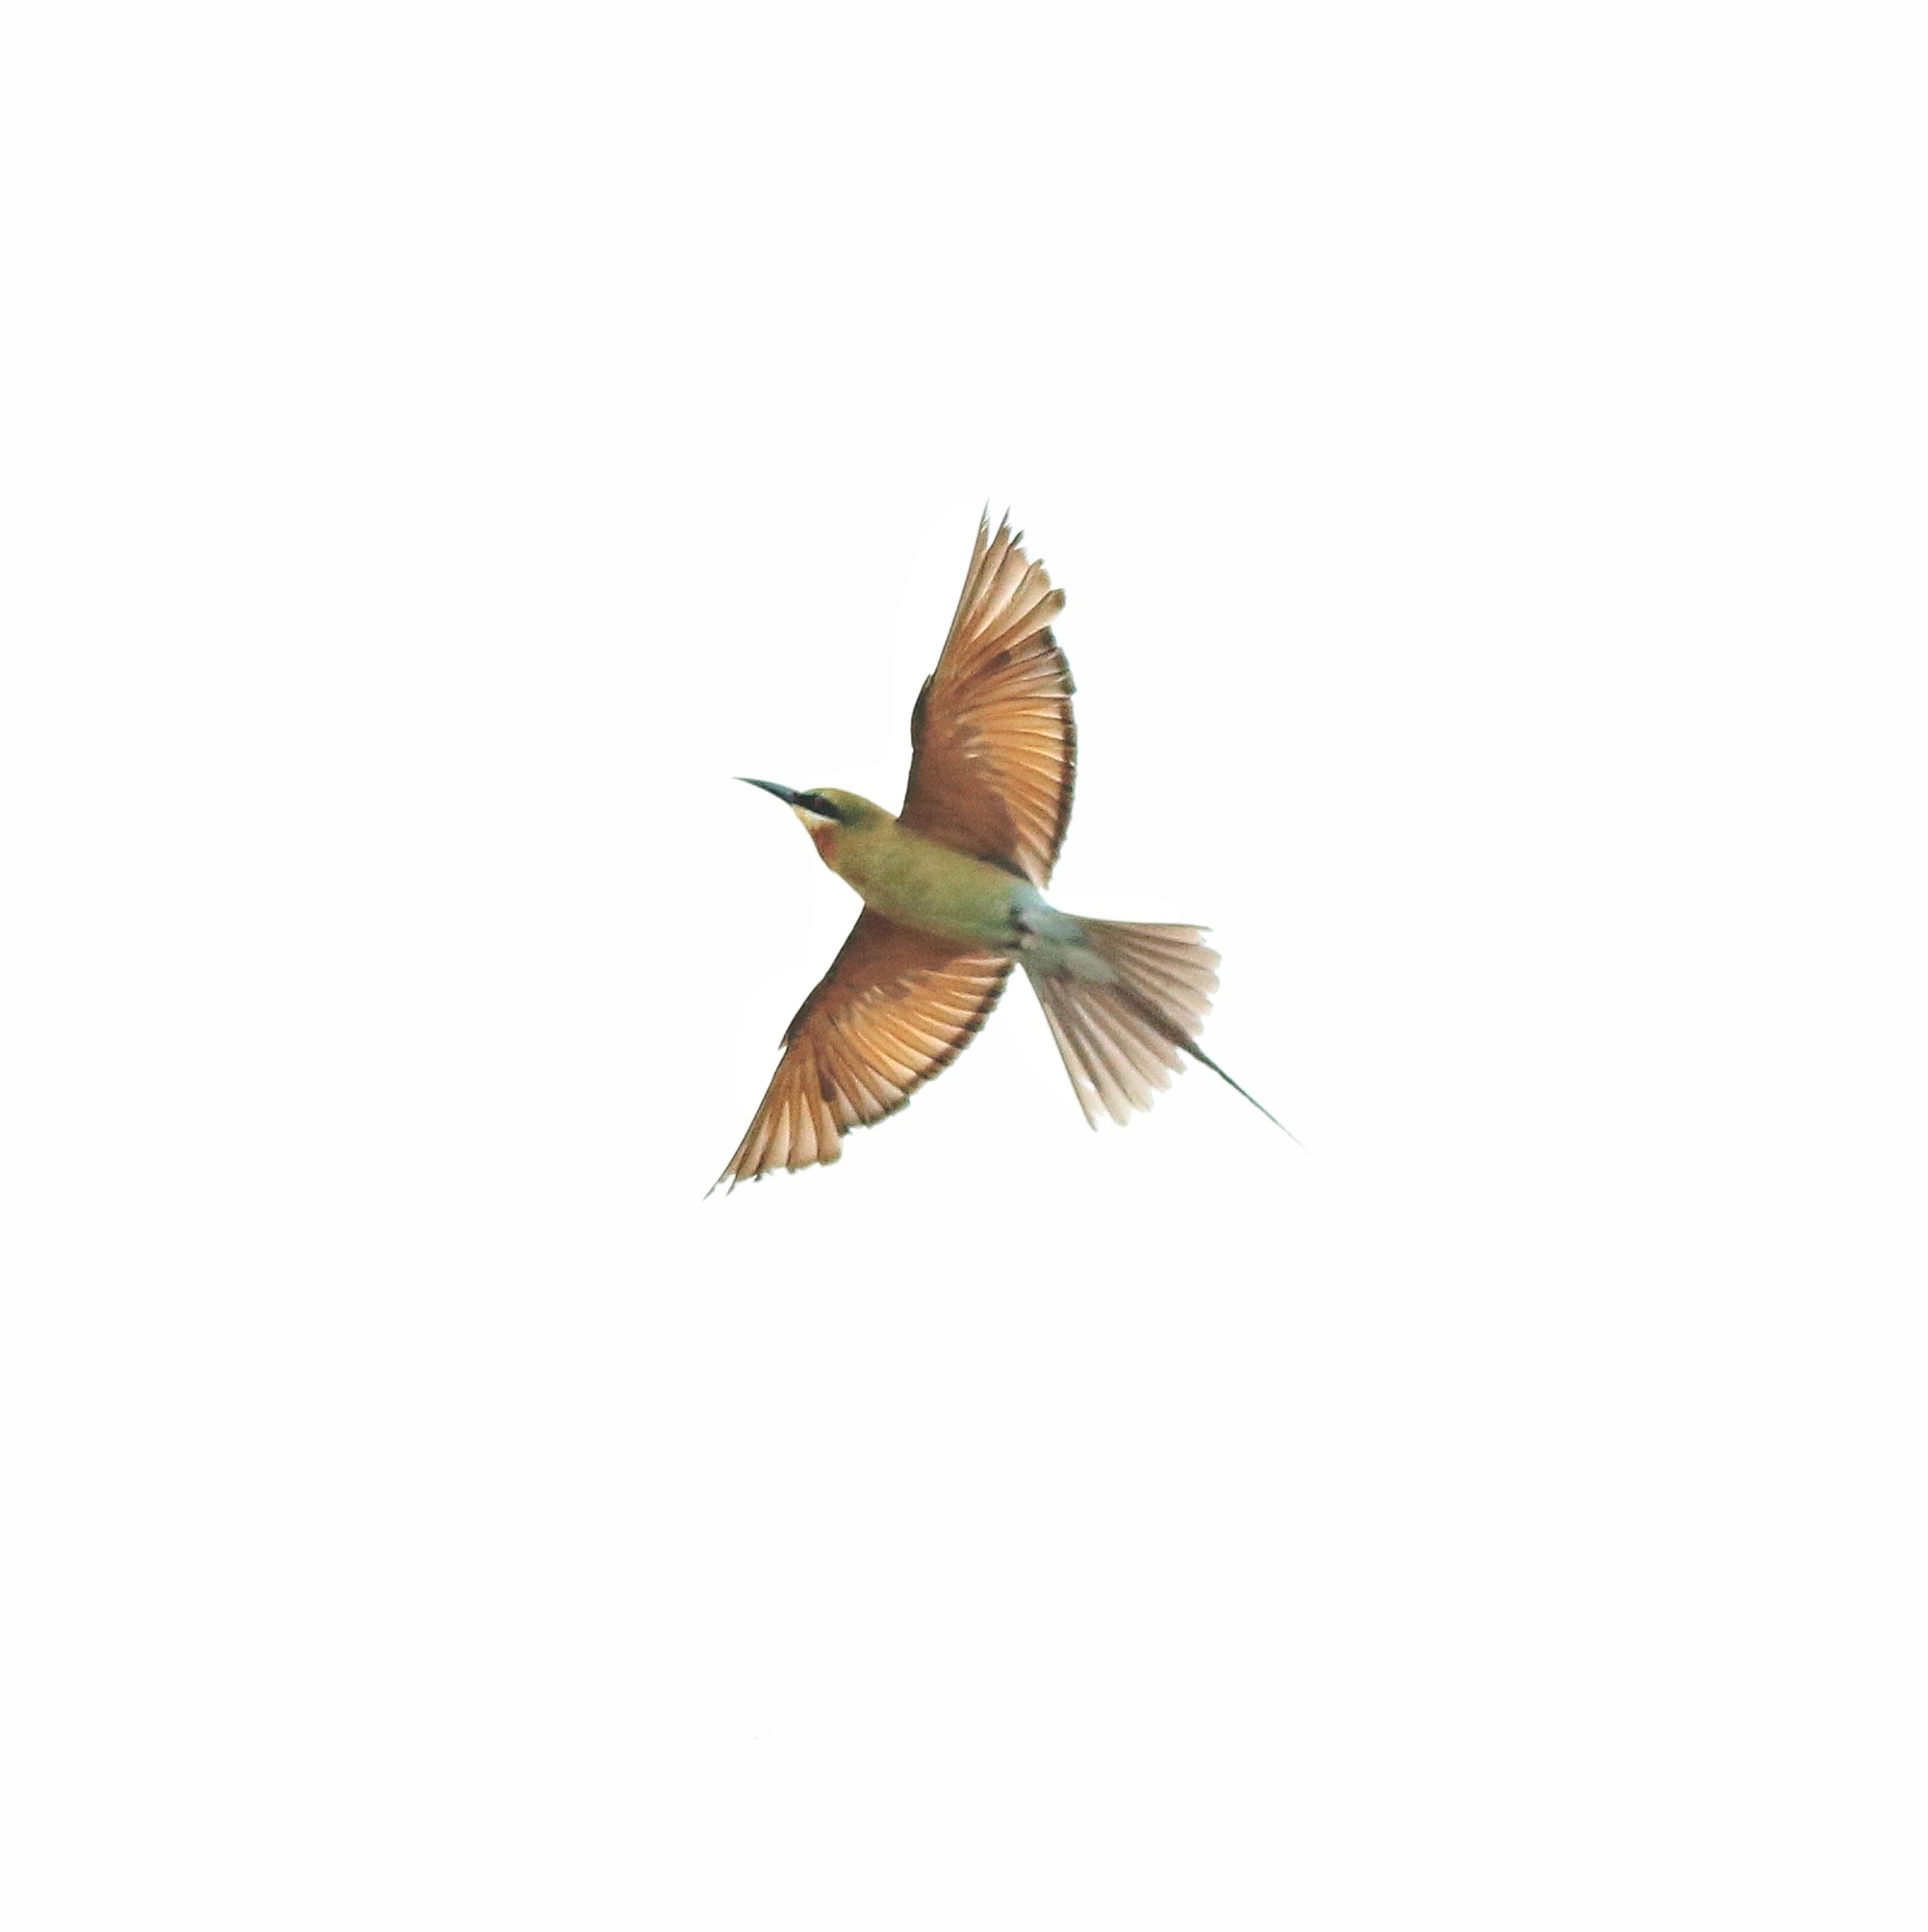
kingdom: Animalia
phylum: Chordata
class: Aves
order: Coraciiformes
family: Meropidae
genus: Merops
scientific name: Merops philippinus
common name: Blue-tailed bee-eater
